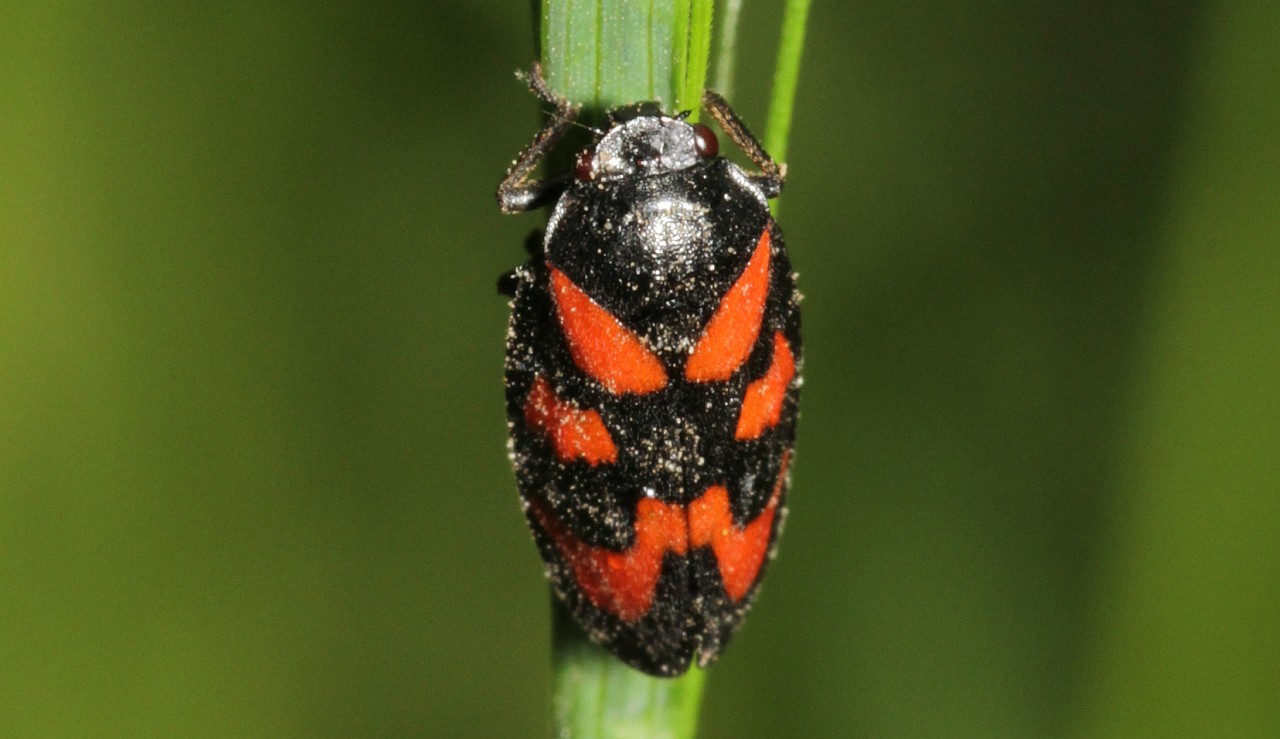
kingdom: Animalia
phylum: Arthropoda
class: Insecta
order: Hemiptera
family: Cercopidae
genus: Cercopis
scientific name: Cercopis vulnerata
